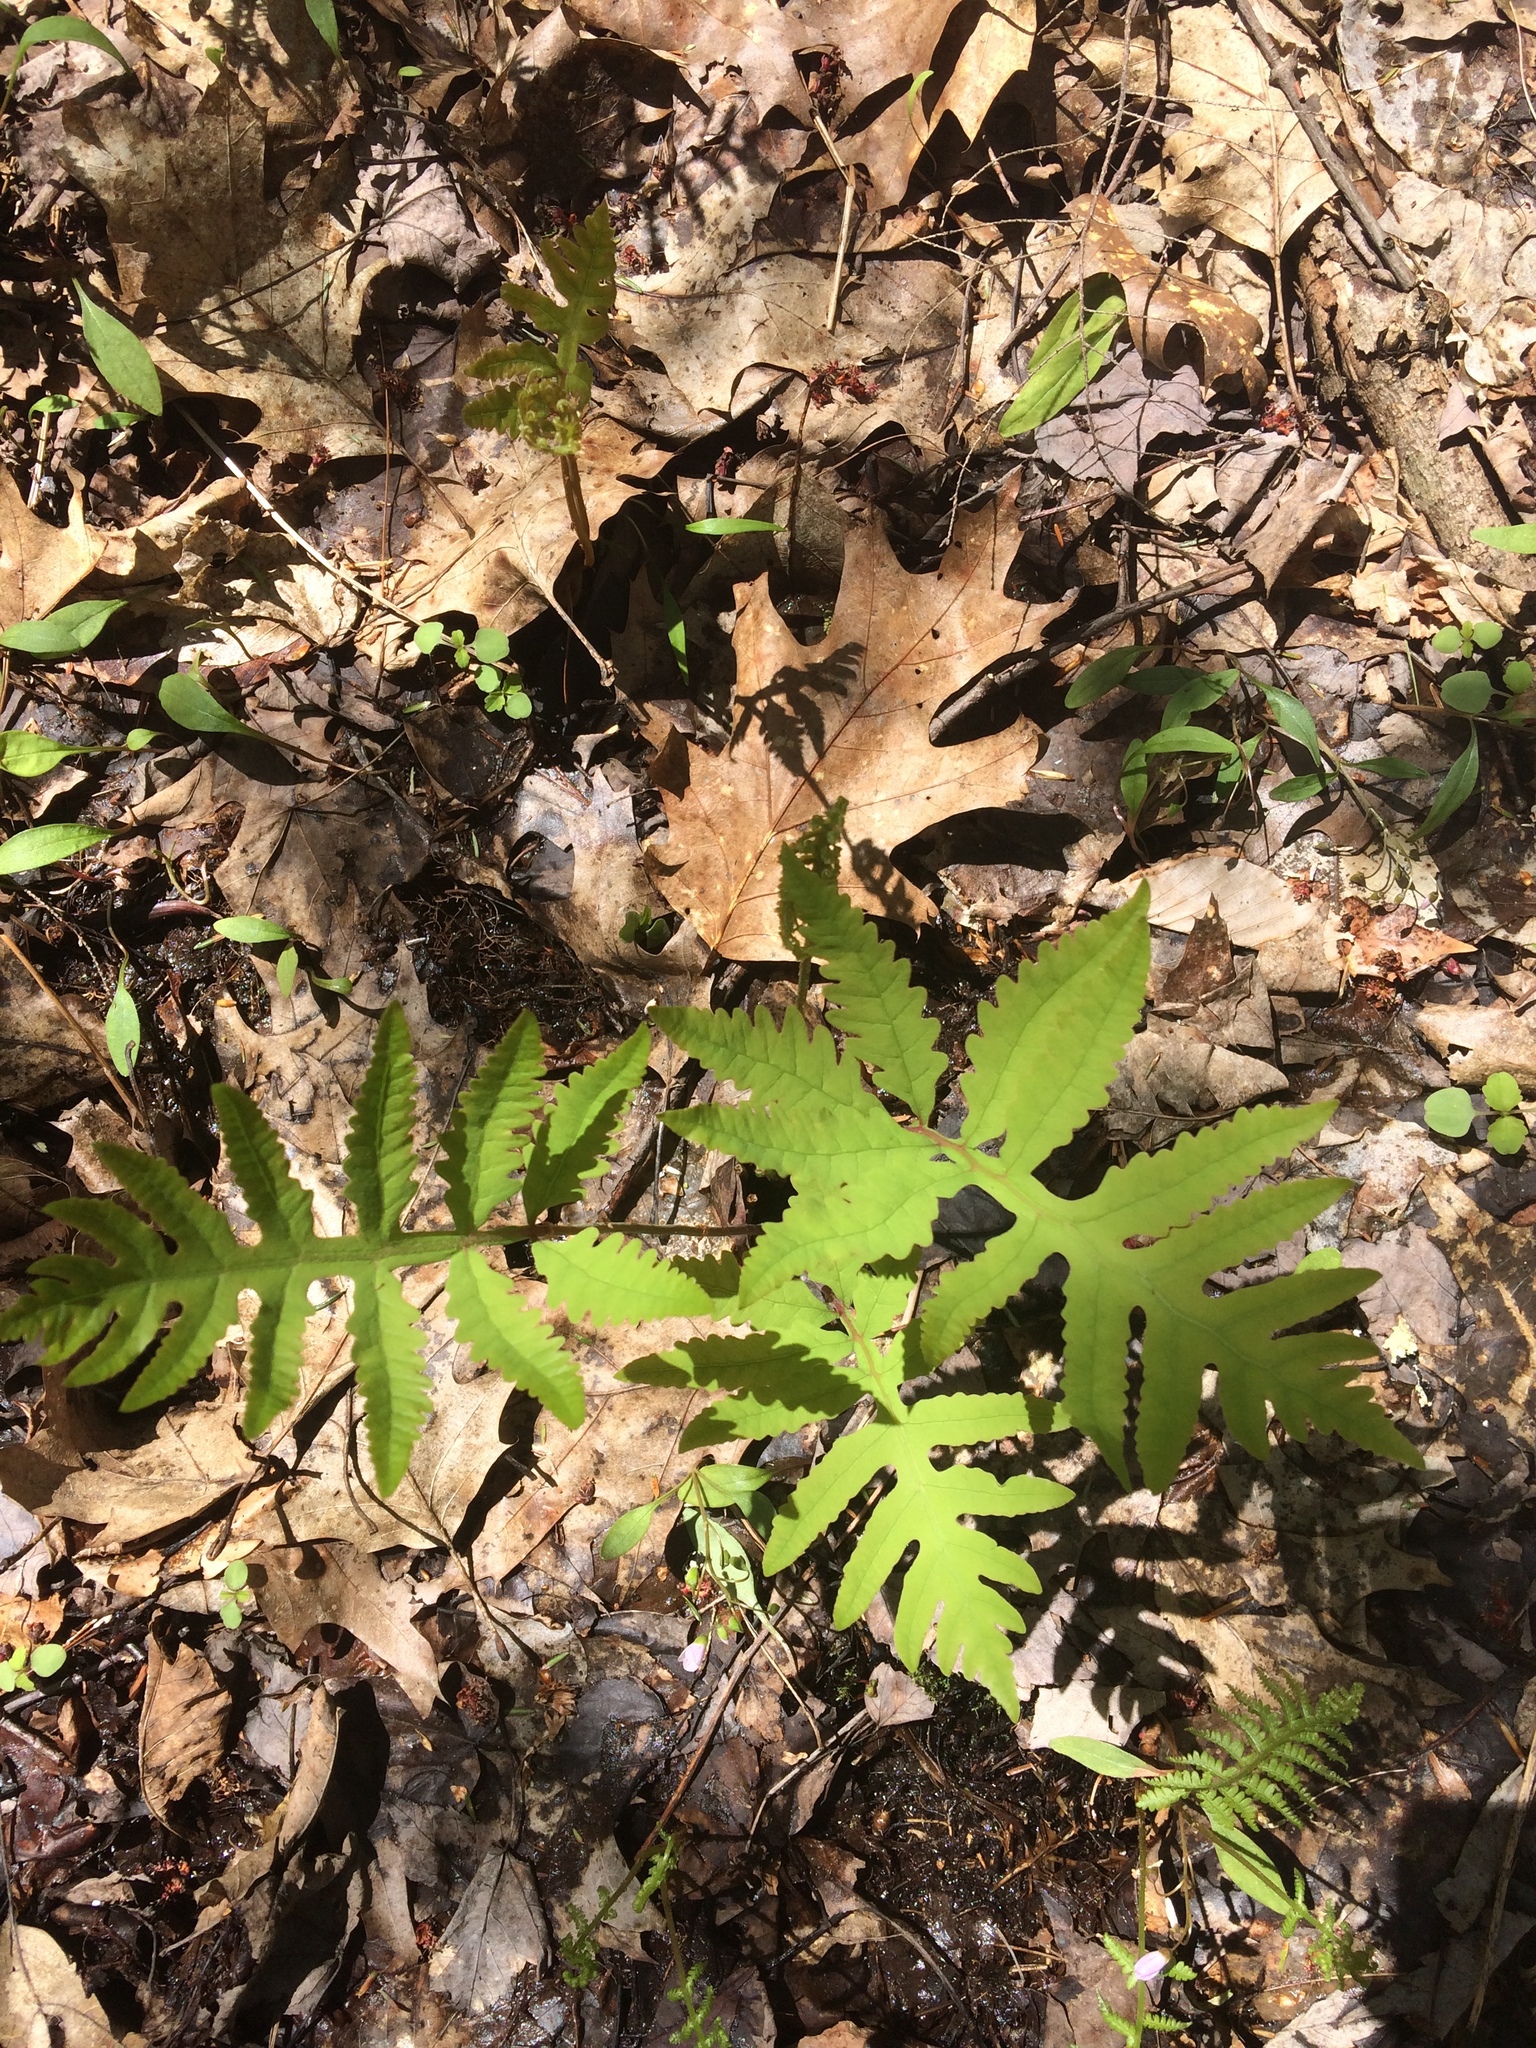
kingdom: Plantae
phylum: Tracheophyta
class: Polypodiopsida
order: Polypodiales
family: Onocleaceae
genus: Onoclea
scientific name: Onoclea sensibilis
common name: Sensitive fern
